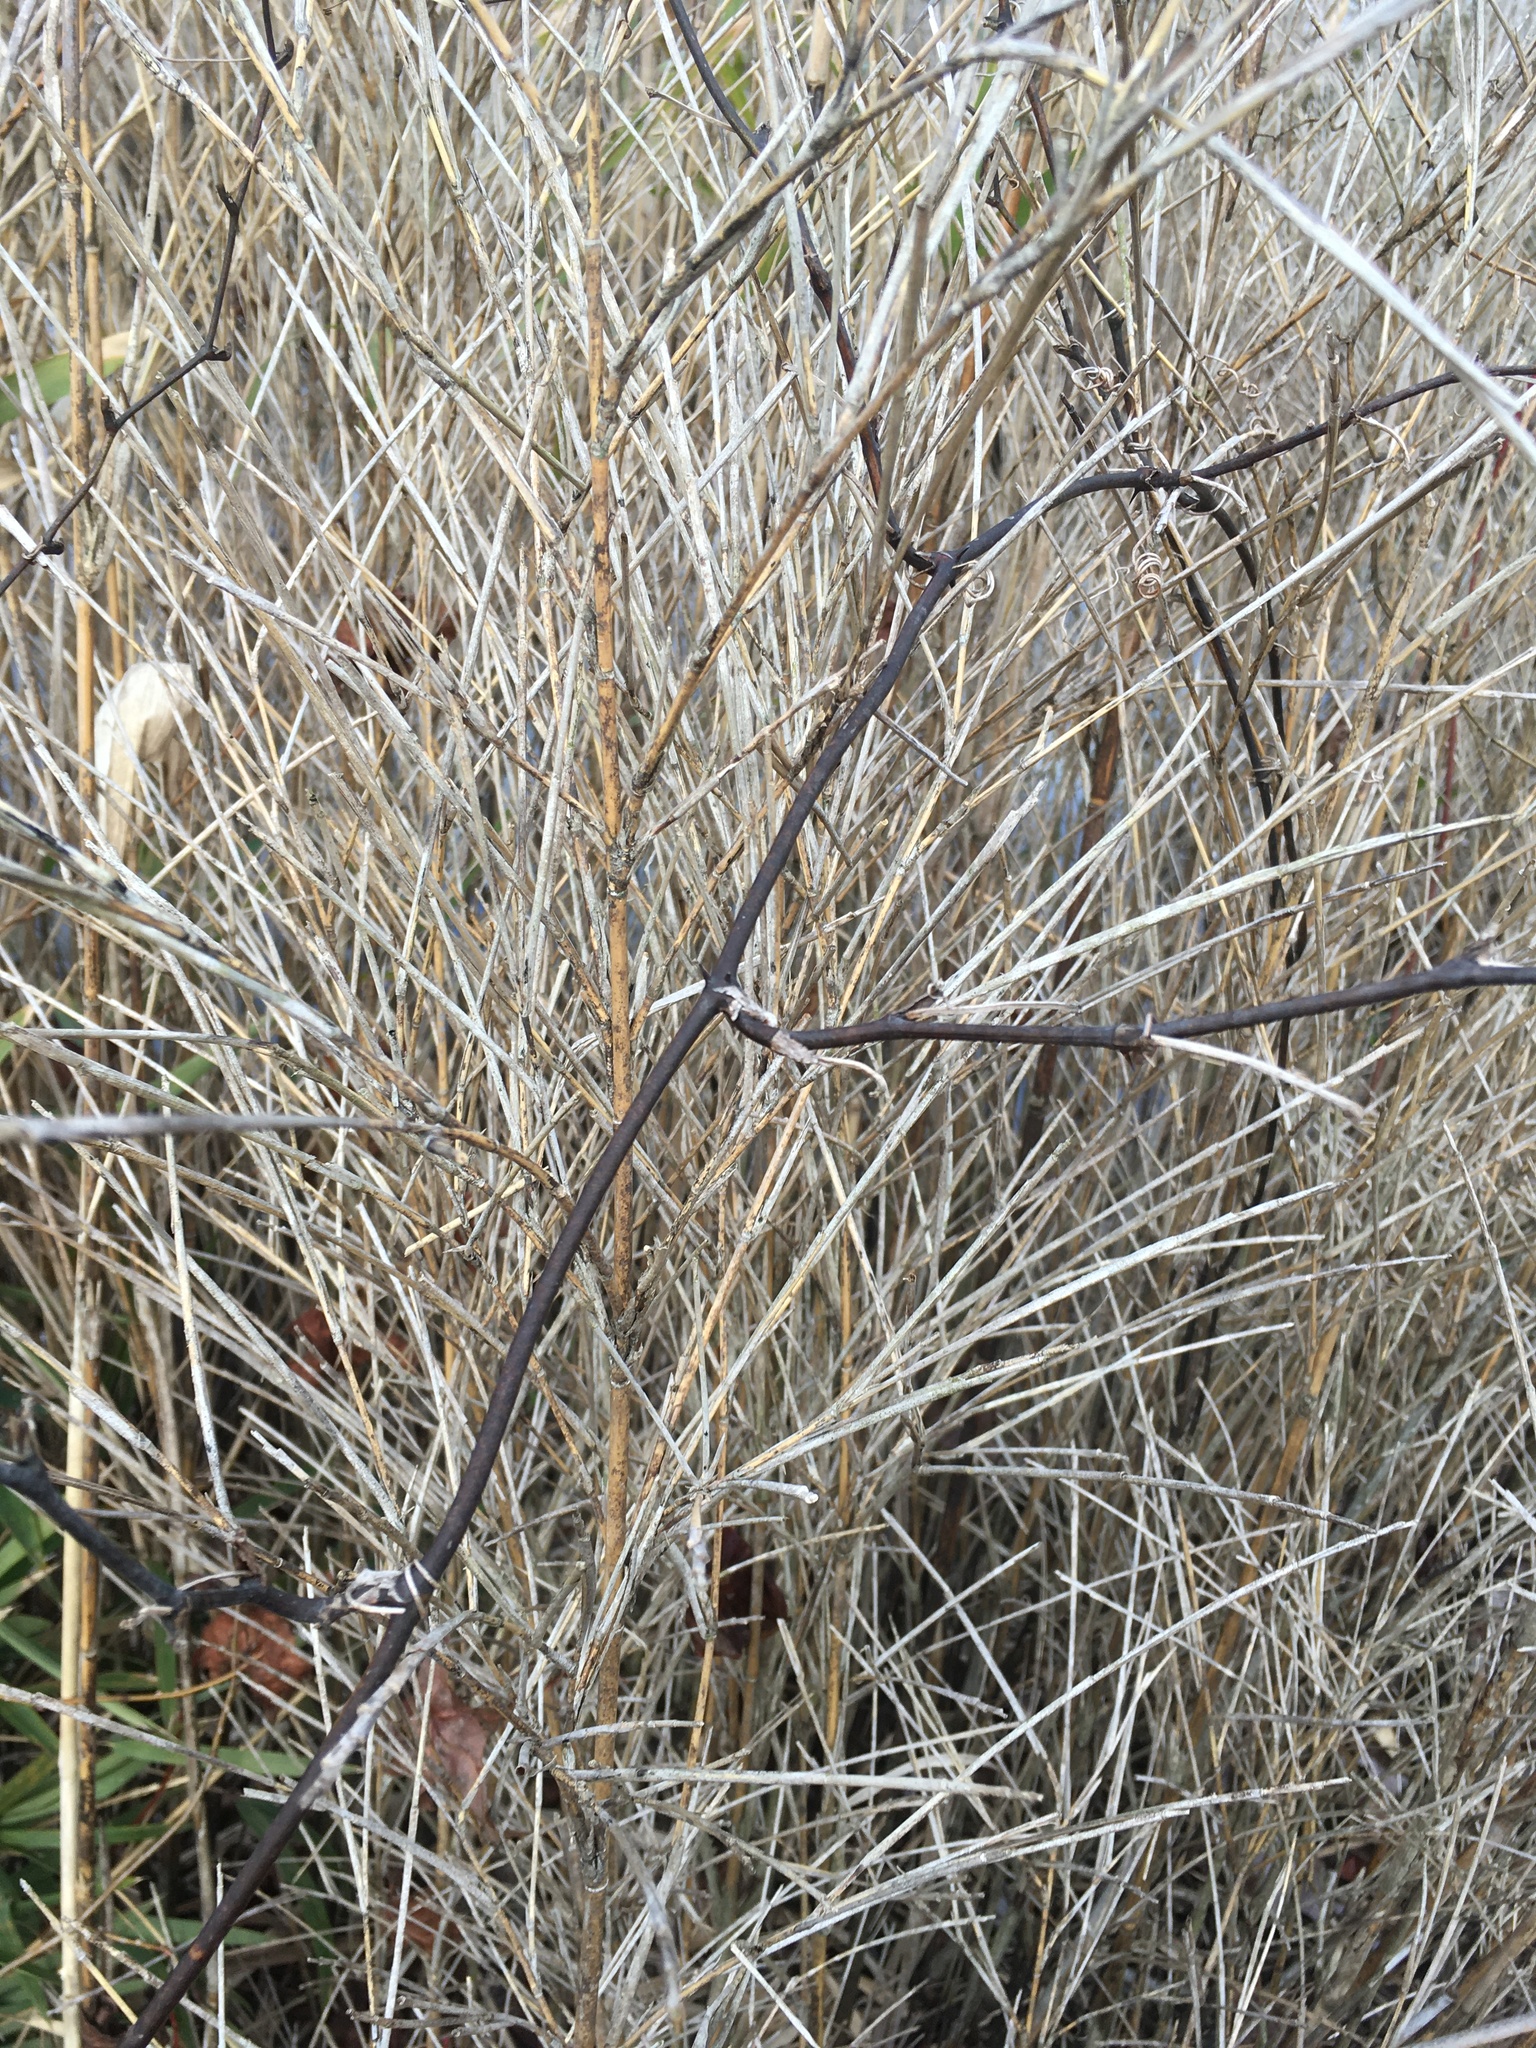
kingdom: Plantae
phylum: Tracheophyta
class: Liliopsida
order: Liliales
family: Smilacaceae
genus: Smilax
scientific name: Smilax glauca
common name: Cat greenbrier
